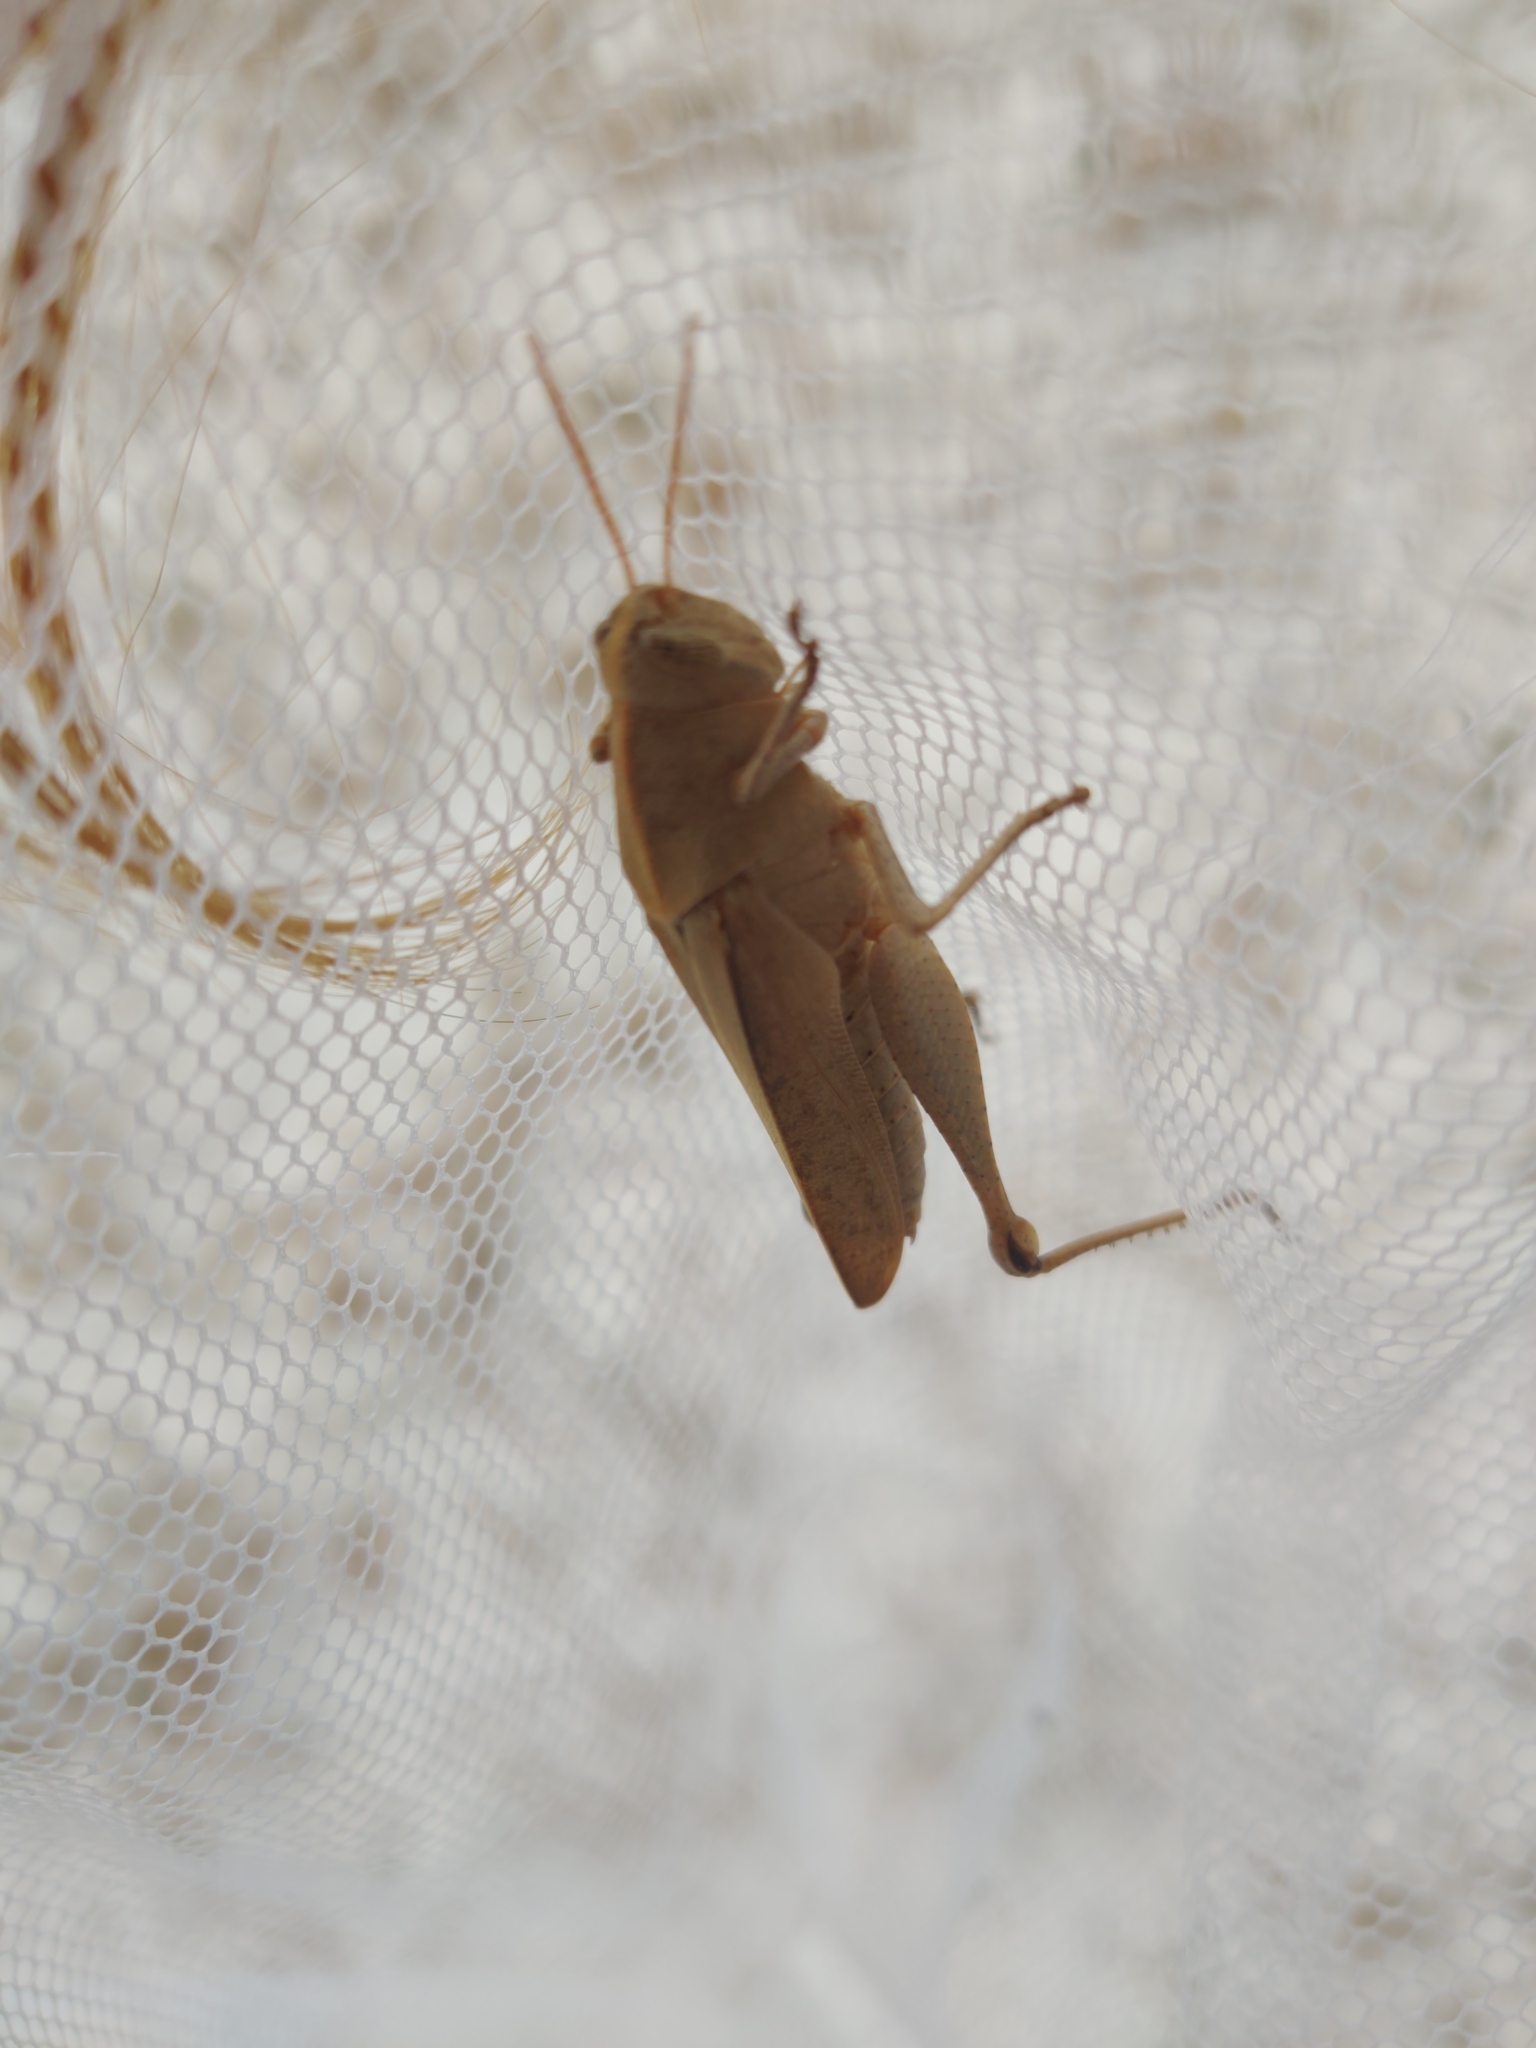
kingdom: Animalia
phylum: Arthropoda
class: Insecta
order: Orthoptera
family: Acrididae
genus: Schistocerca
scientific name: Schistocerca damnifica
